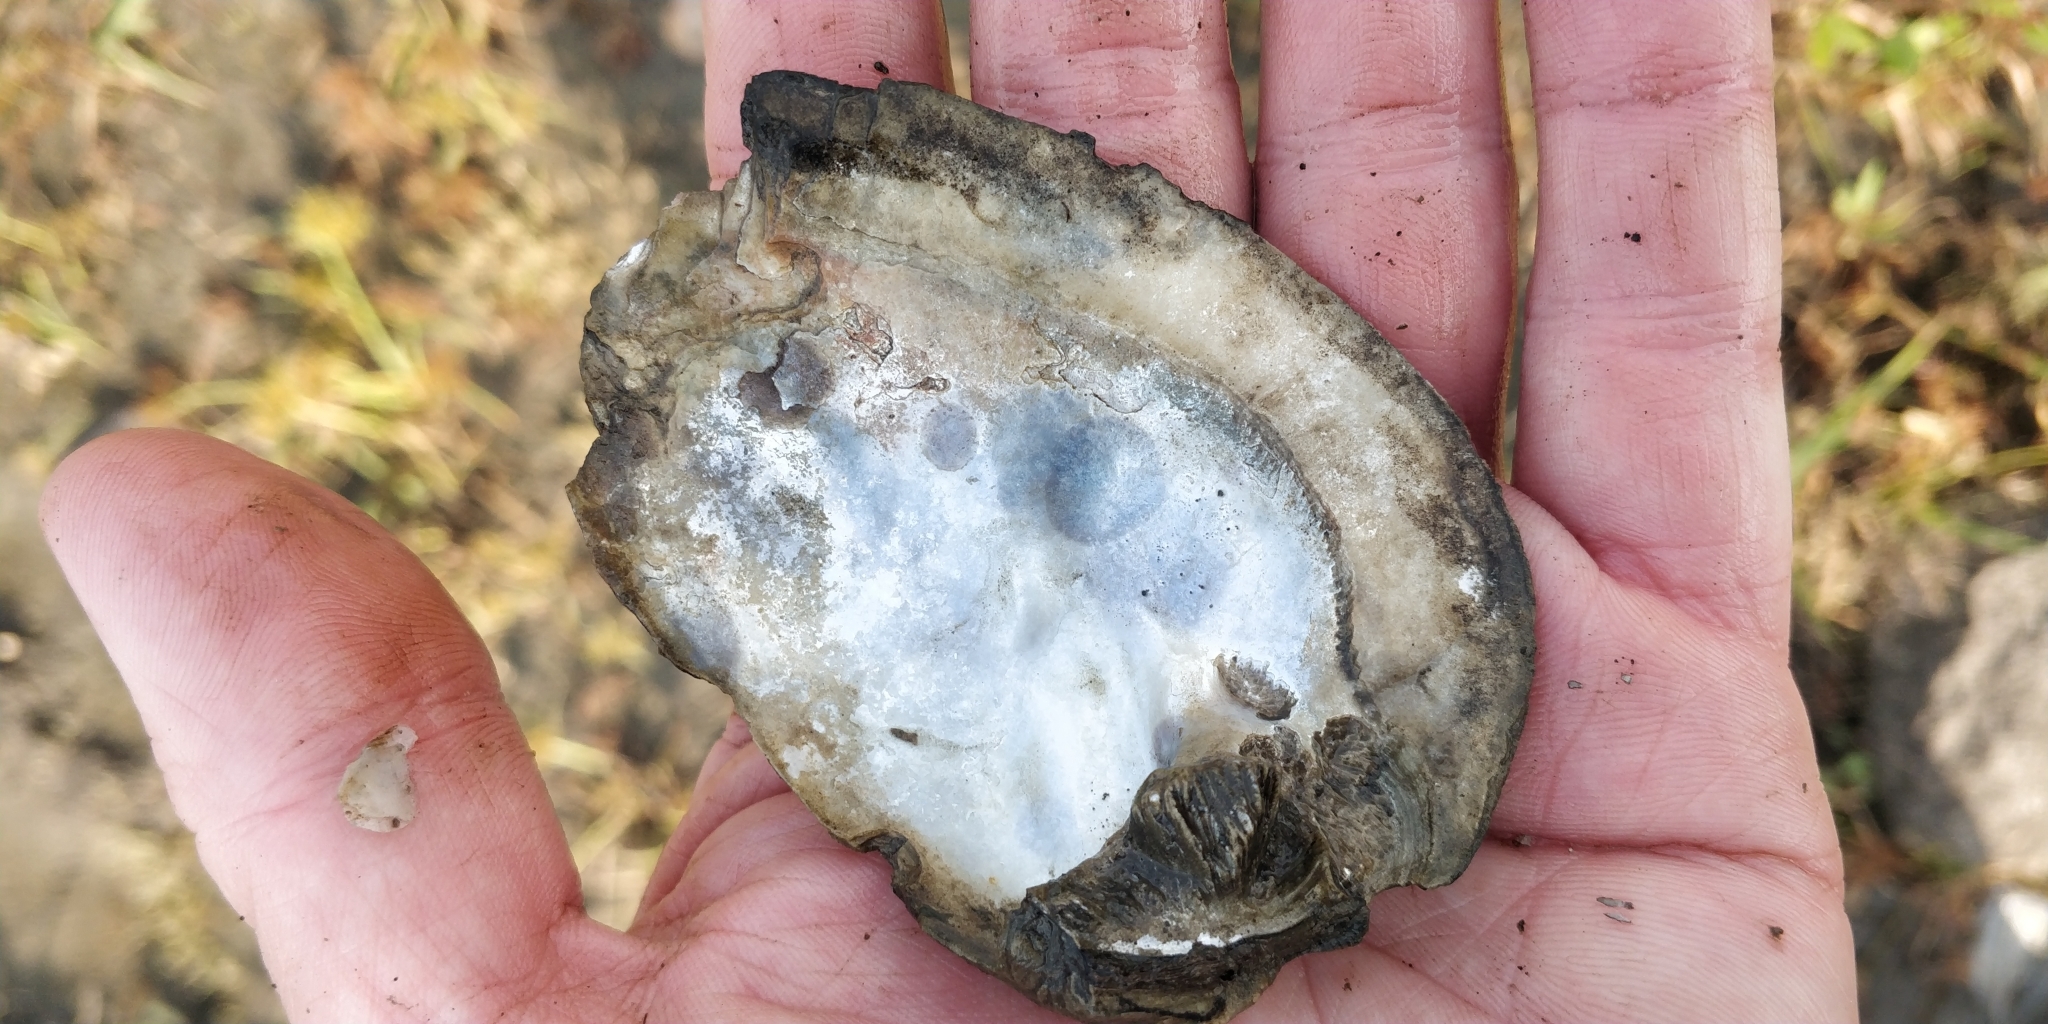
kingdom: Animalia
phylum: Mollusca
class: Bivalvia
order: Unionida
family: Unionidae
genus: Amblema
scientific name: Amblema plicata
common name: Threeridge
